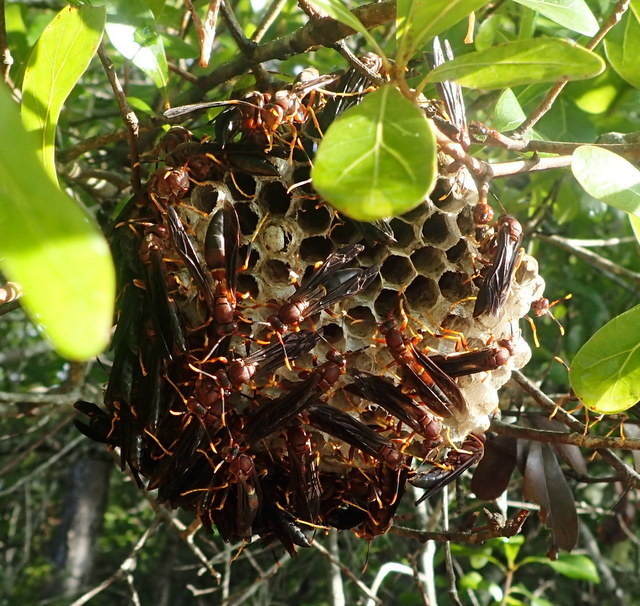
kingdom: Animalia
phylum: Arthropoda
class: Insecta
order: Hymenoptera
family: Eumenidae
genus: Polistes
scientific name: Polistes annularis
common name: Ringed paper wasp
